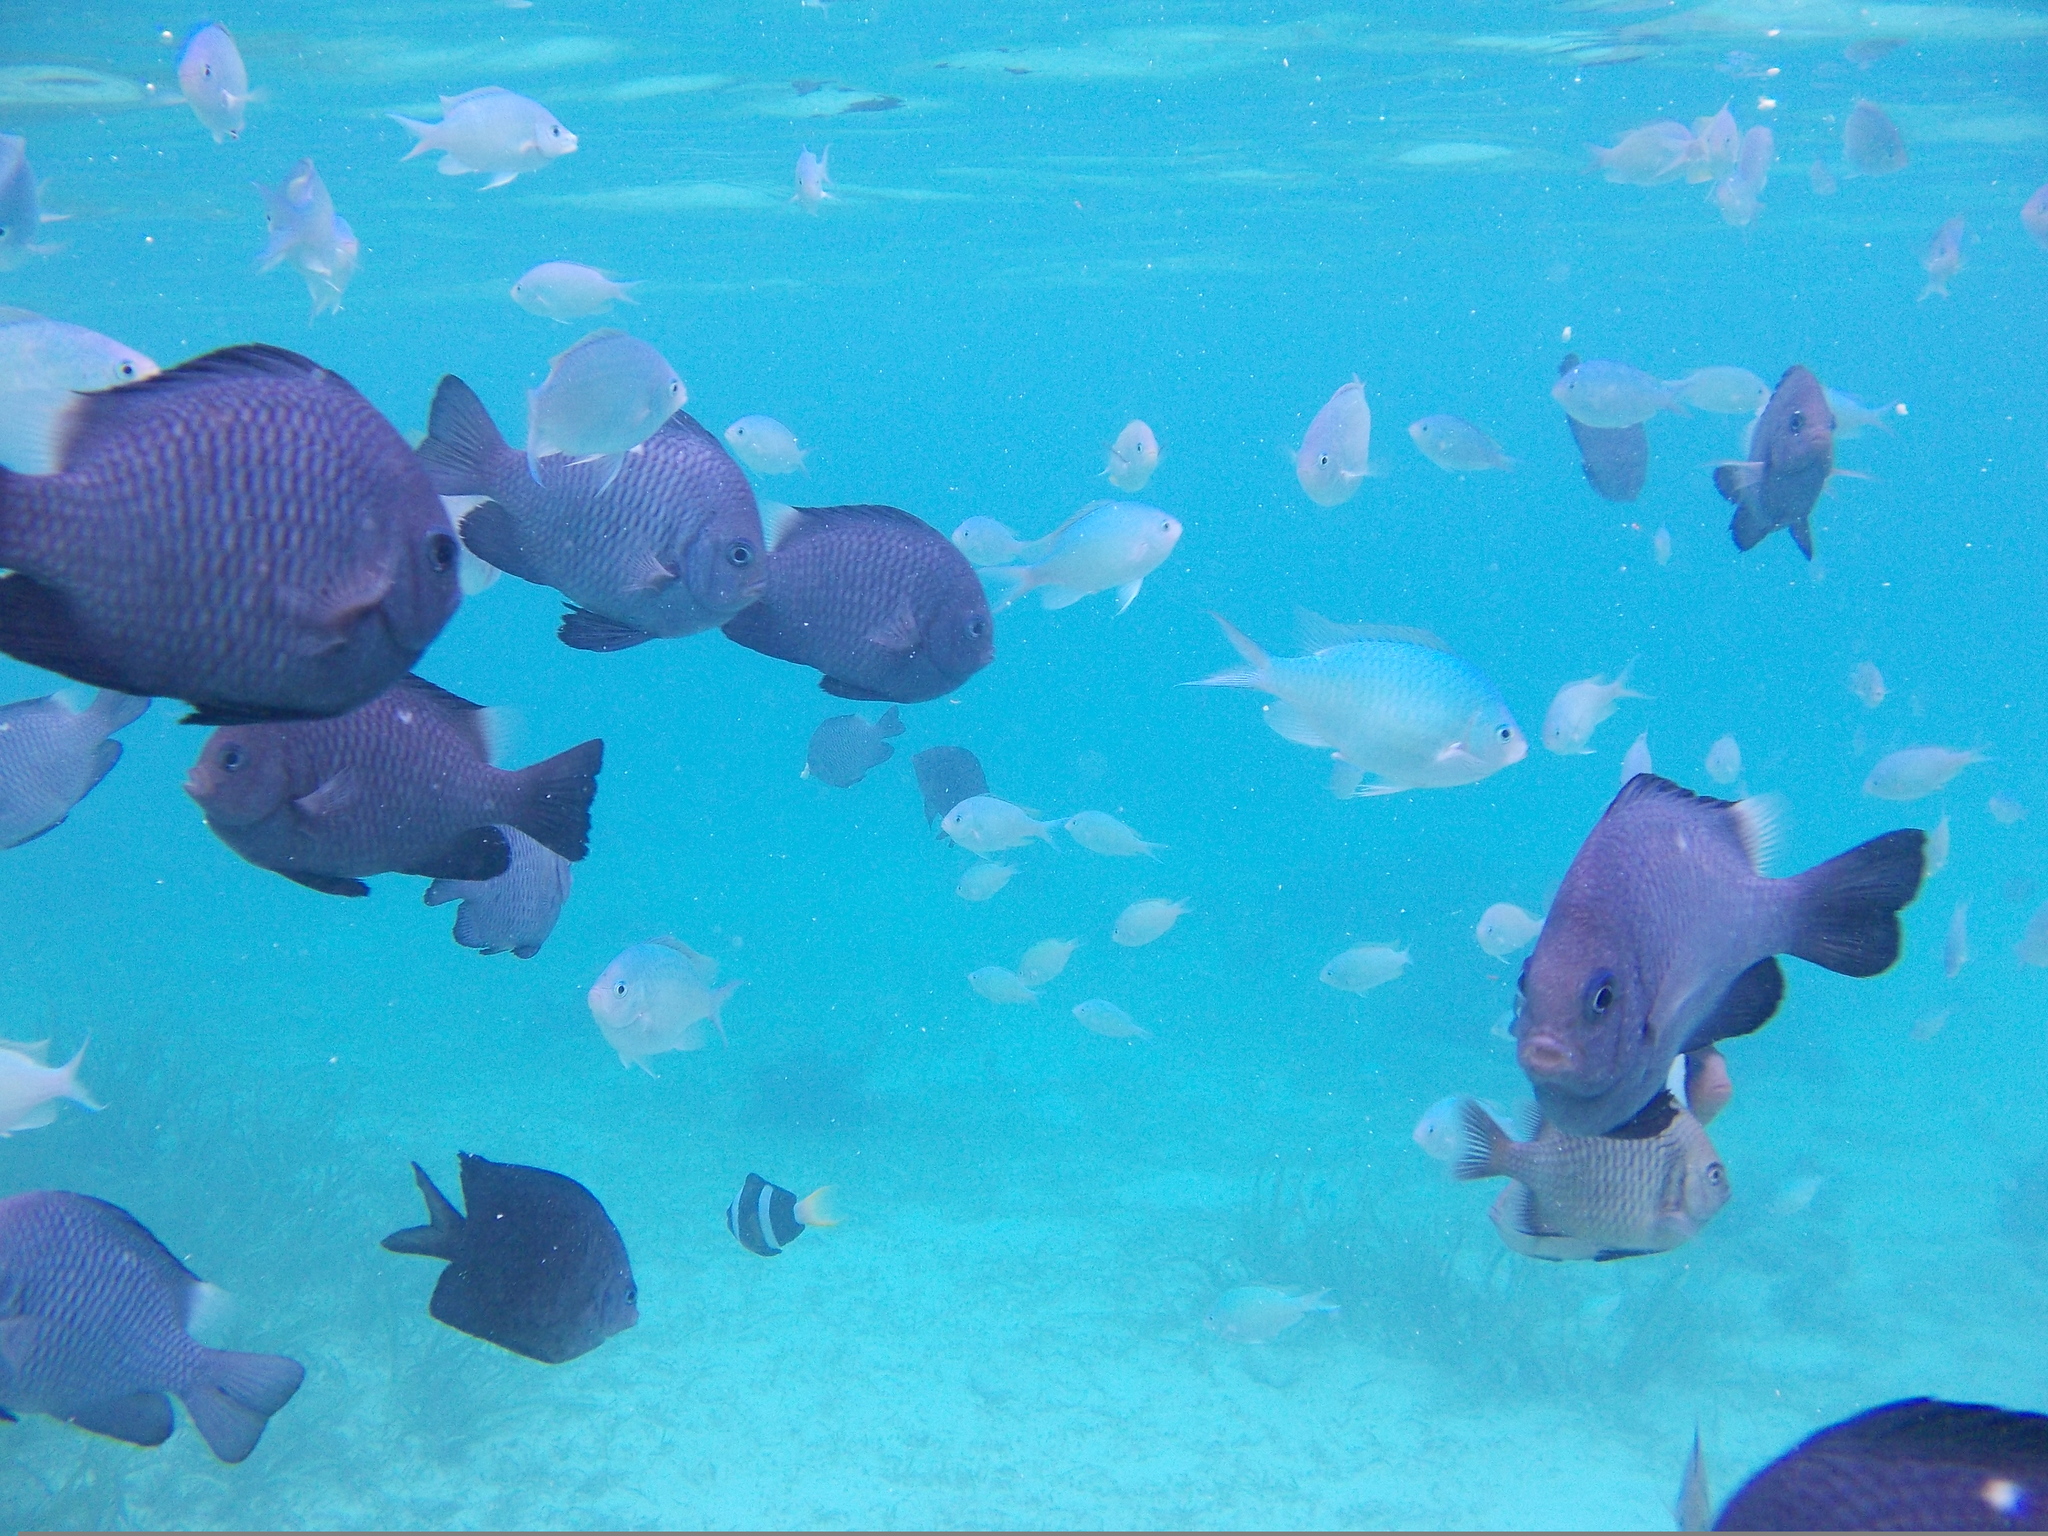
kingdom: Animalia
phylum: Chordata
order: Perciformes
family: Pomacentridae
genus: Dascyllus
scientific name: Dascyllus trimaculatus
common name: Threespot dascyllus
